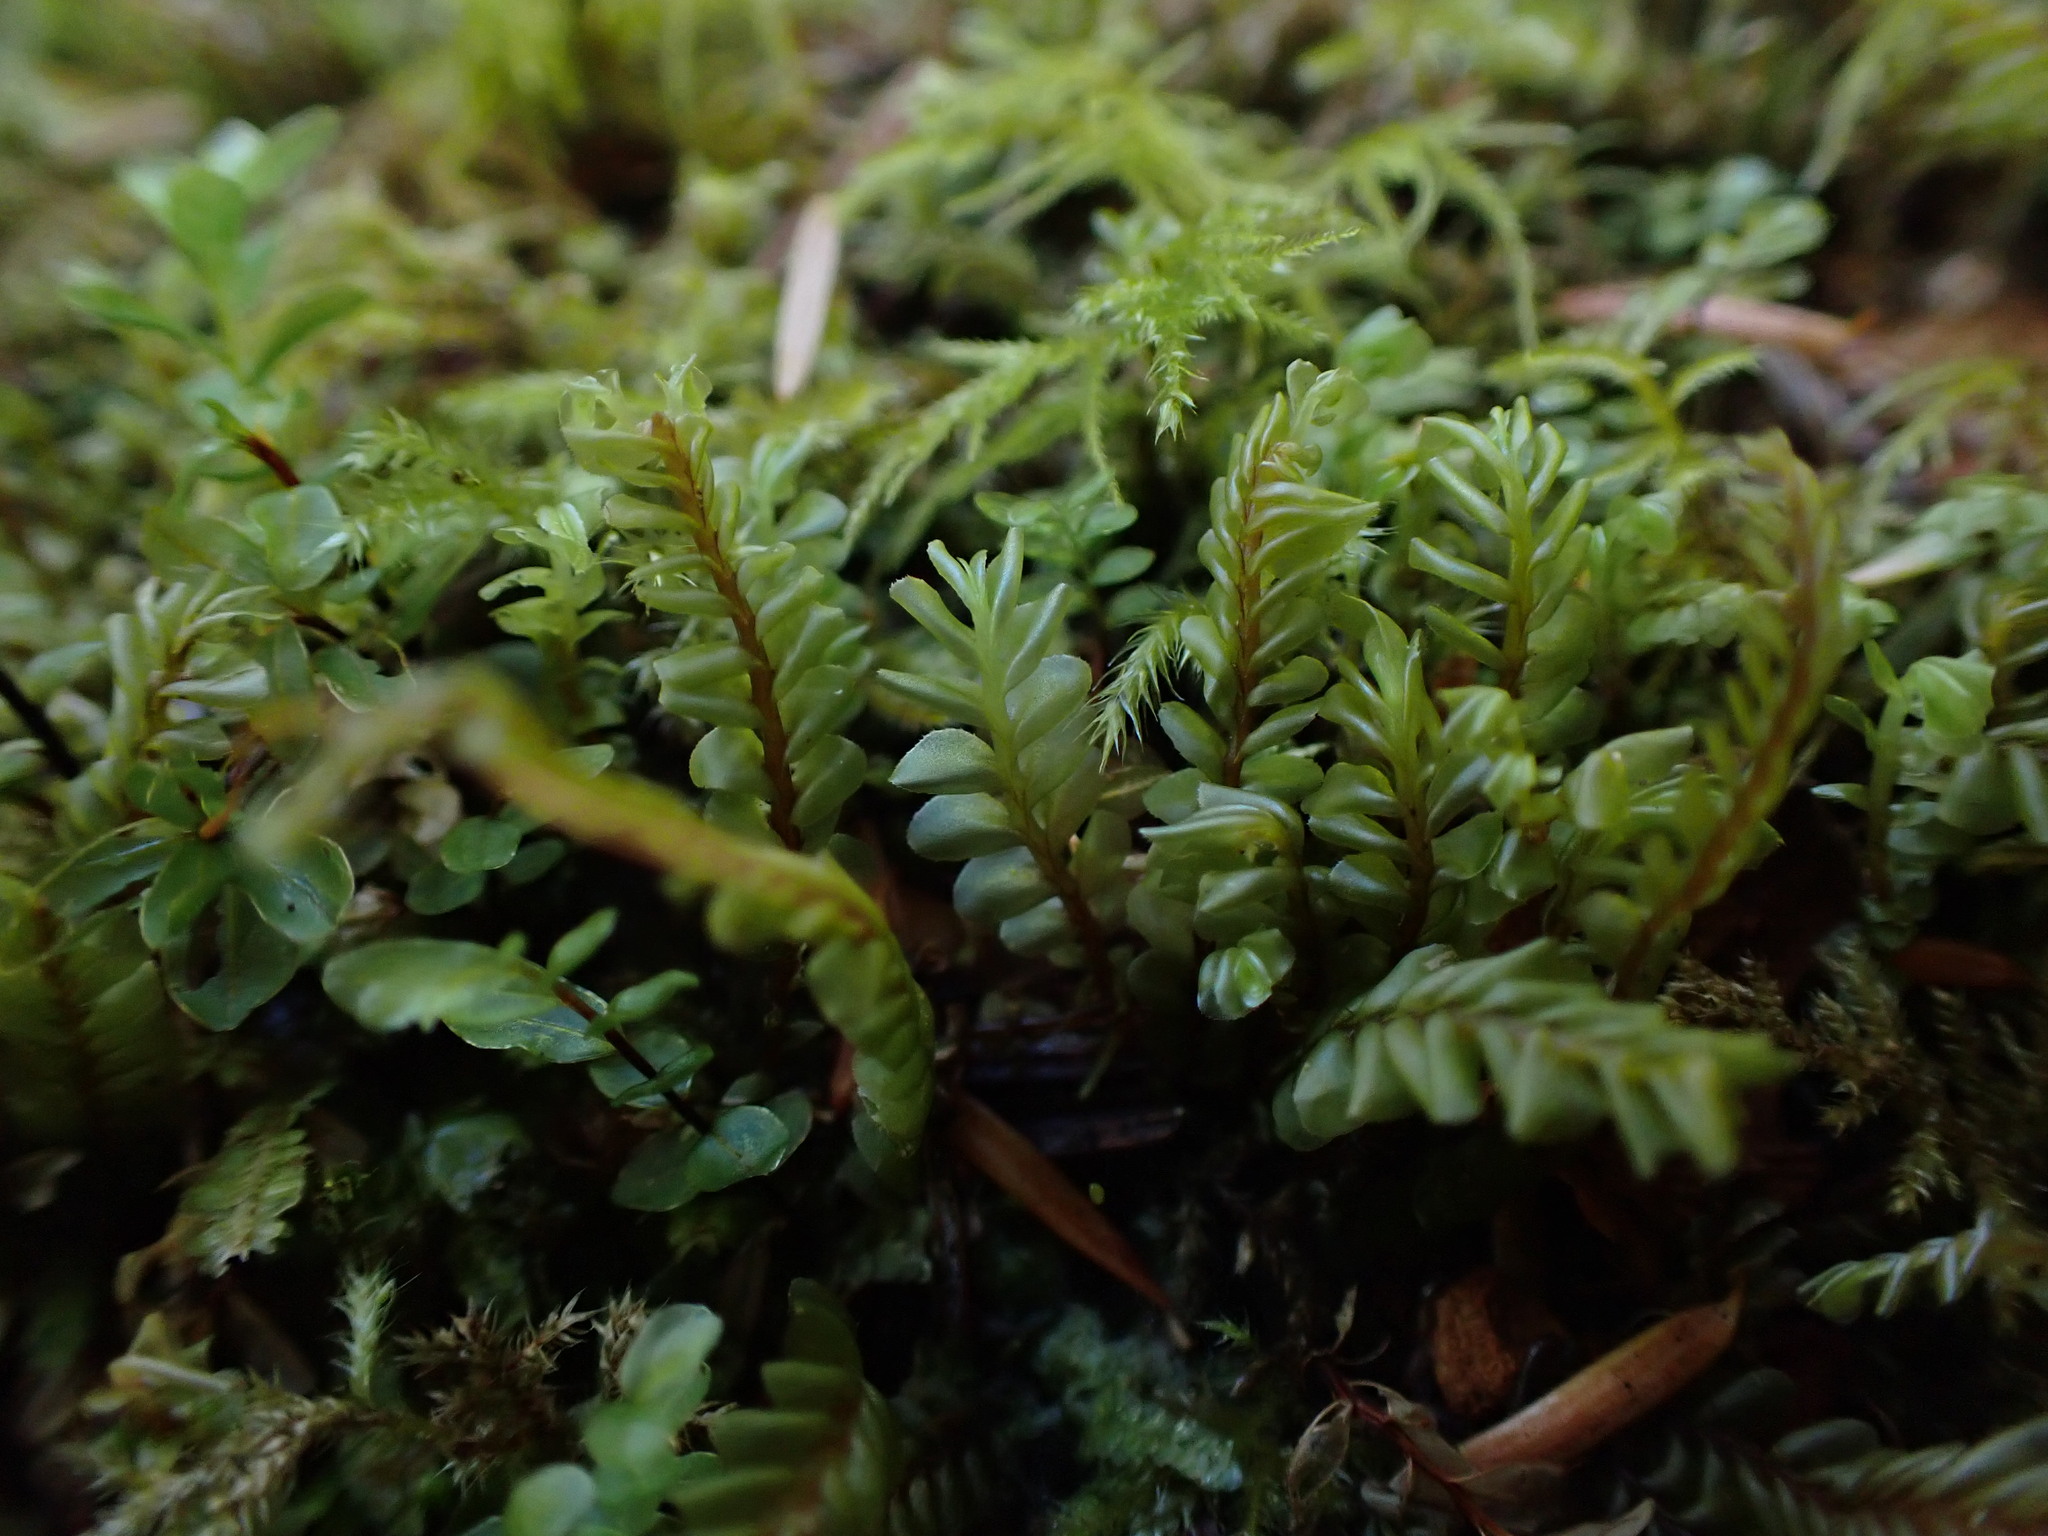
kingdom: Plantae
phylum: Marchantiophyta
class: Jungermanniopsida
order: Jungermanniales
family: Plagiochilaceae
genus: Plagiochila
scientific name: Plagiochila porelloides
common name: Lesser featherwort
